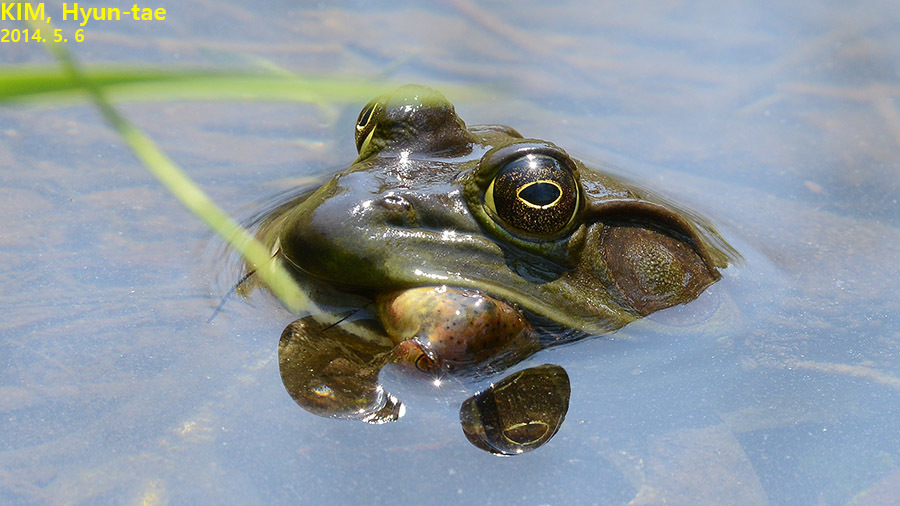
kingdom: Animalia
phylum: Chordata
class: Amphibia
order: Anura
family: Ranidae
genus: Lithobates
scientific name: Lithobates catesbeianus
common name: American bullfrog
